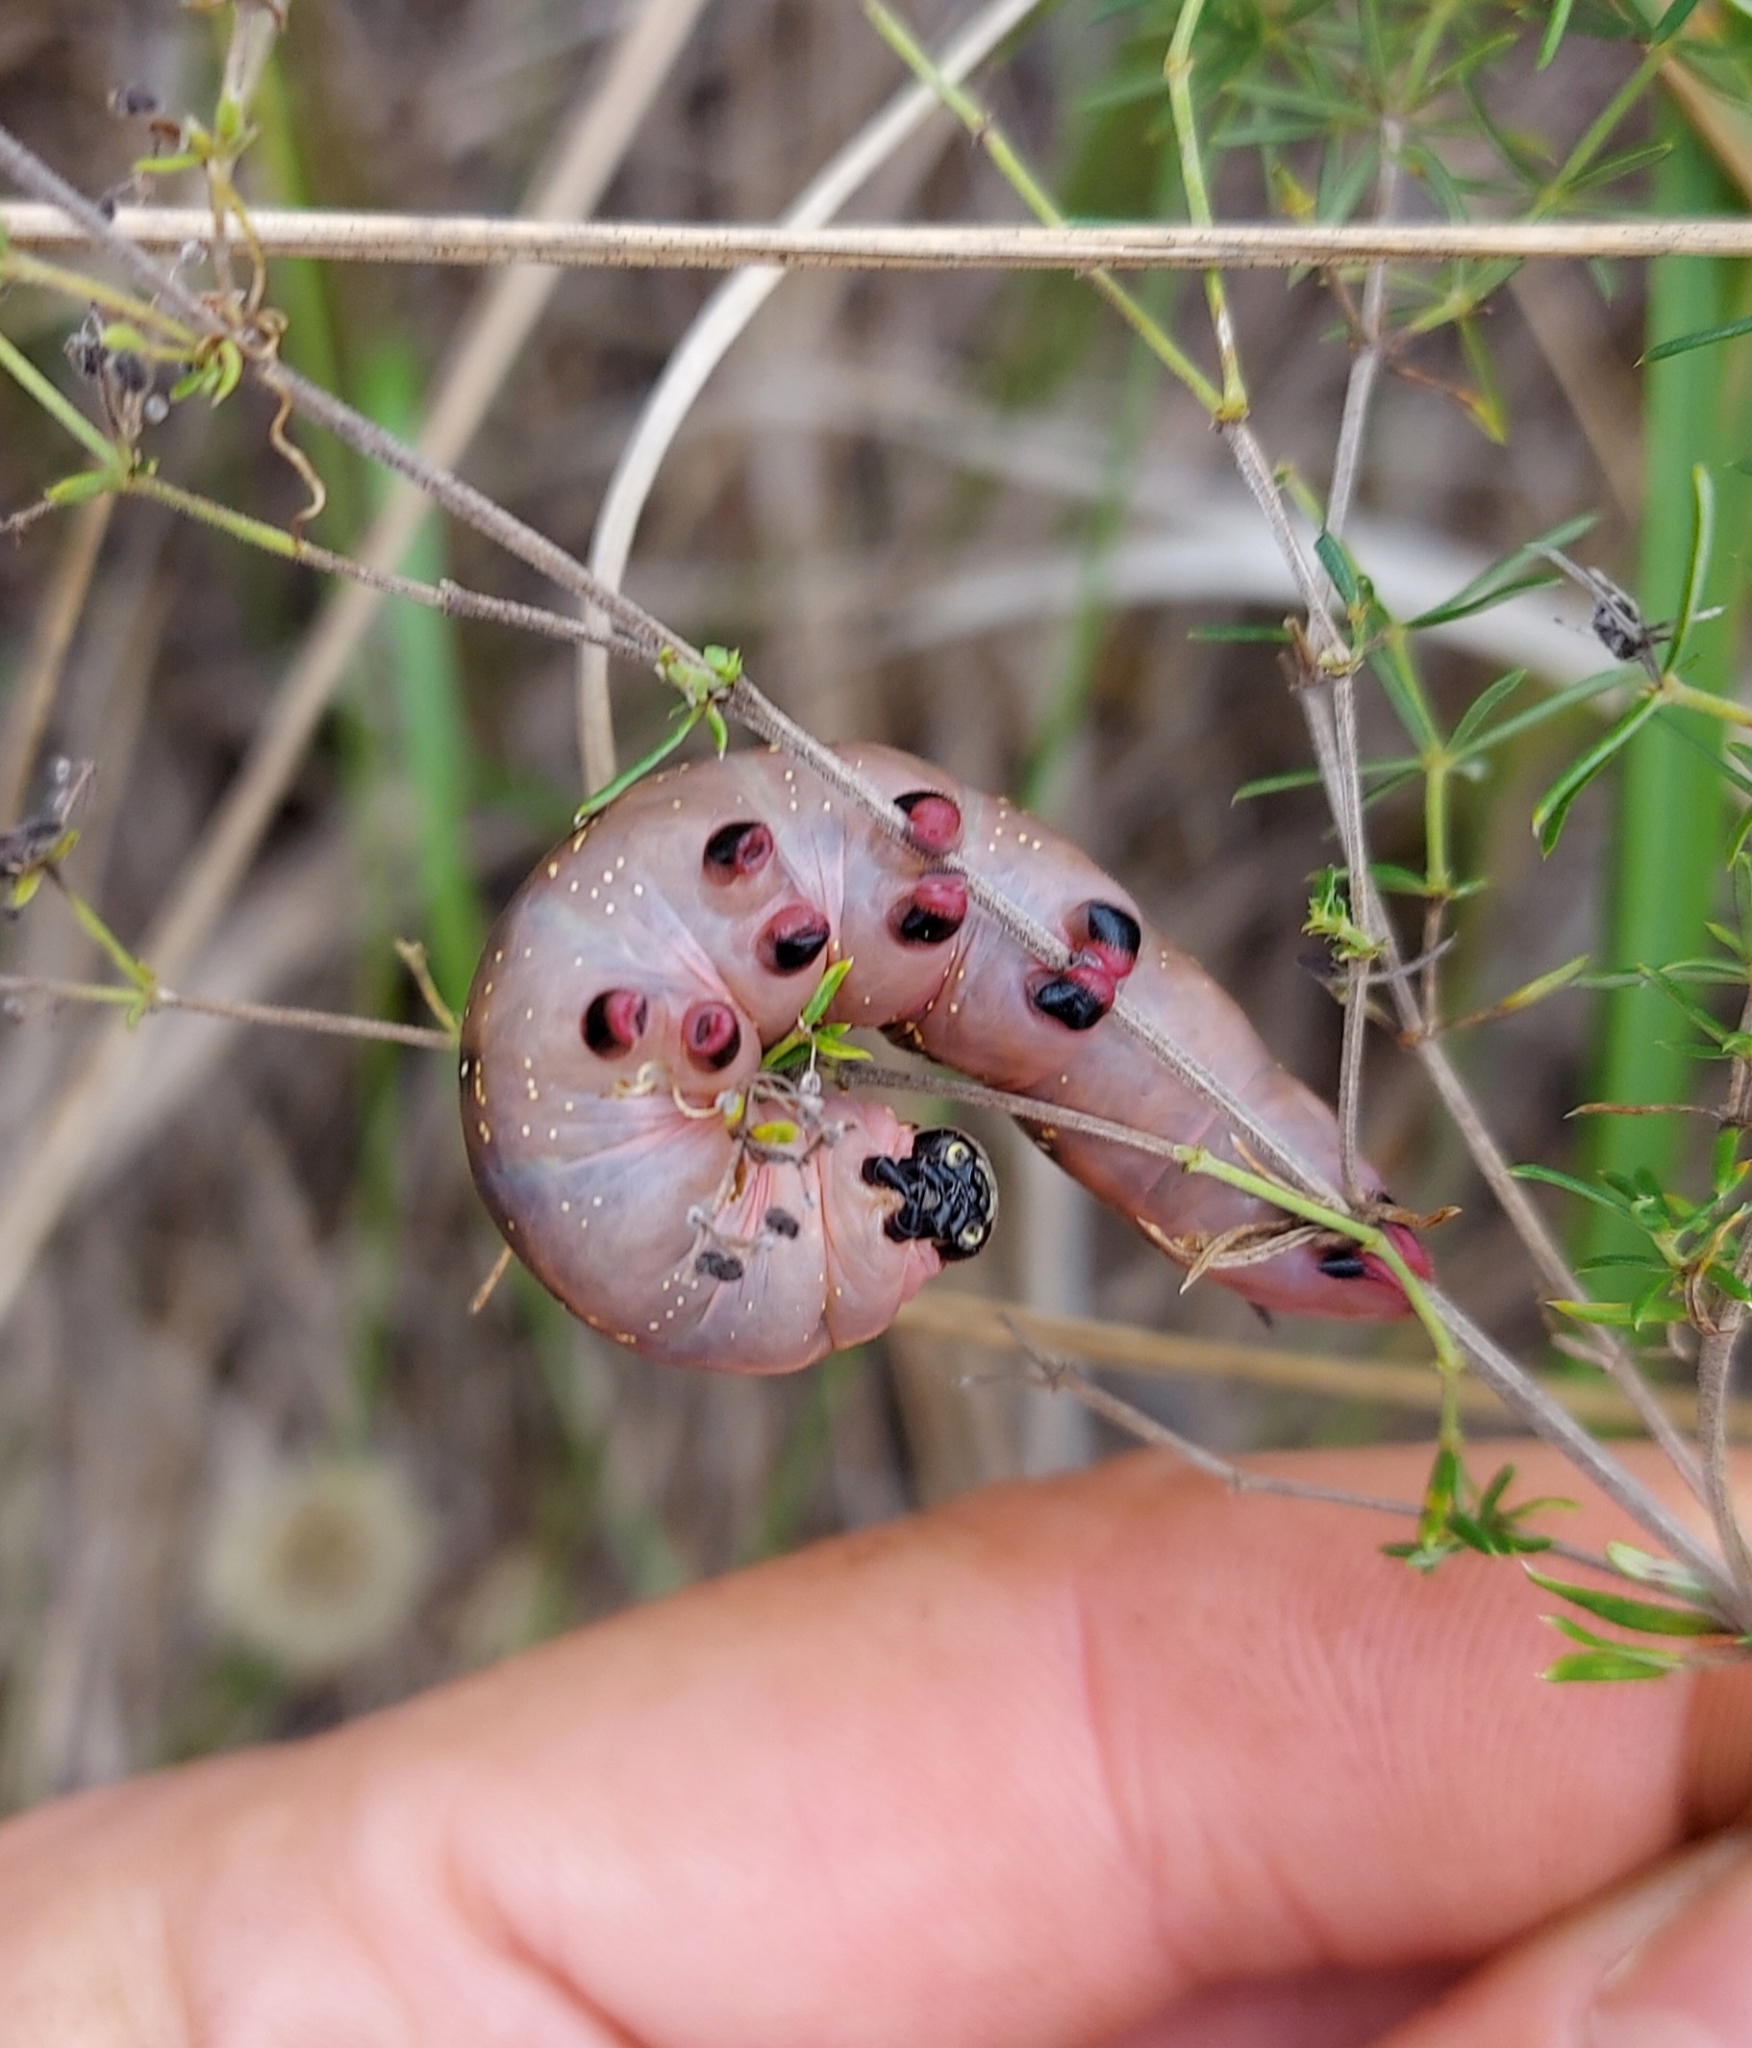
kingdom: Animalia
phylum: Arthropoda
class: Insecta
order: Lepidoptera
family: Sphingidae
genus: Hyles
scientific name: Hyles gallii
